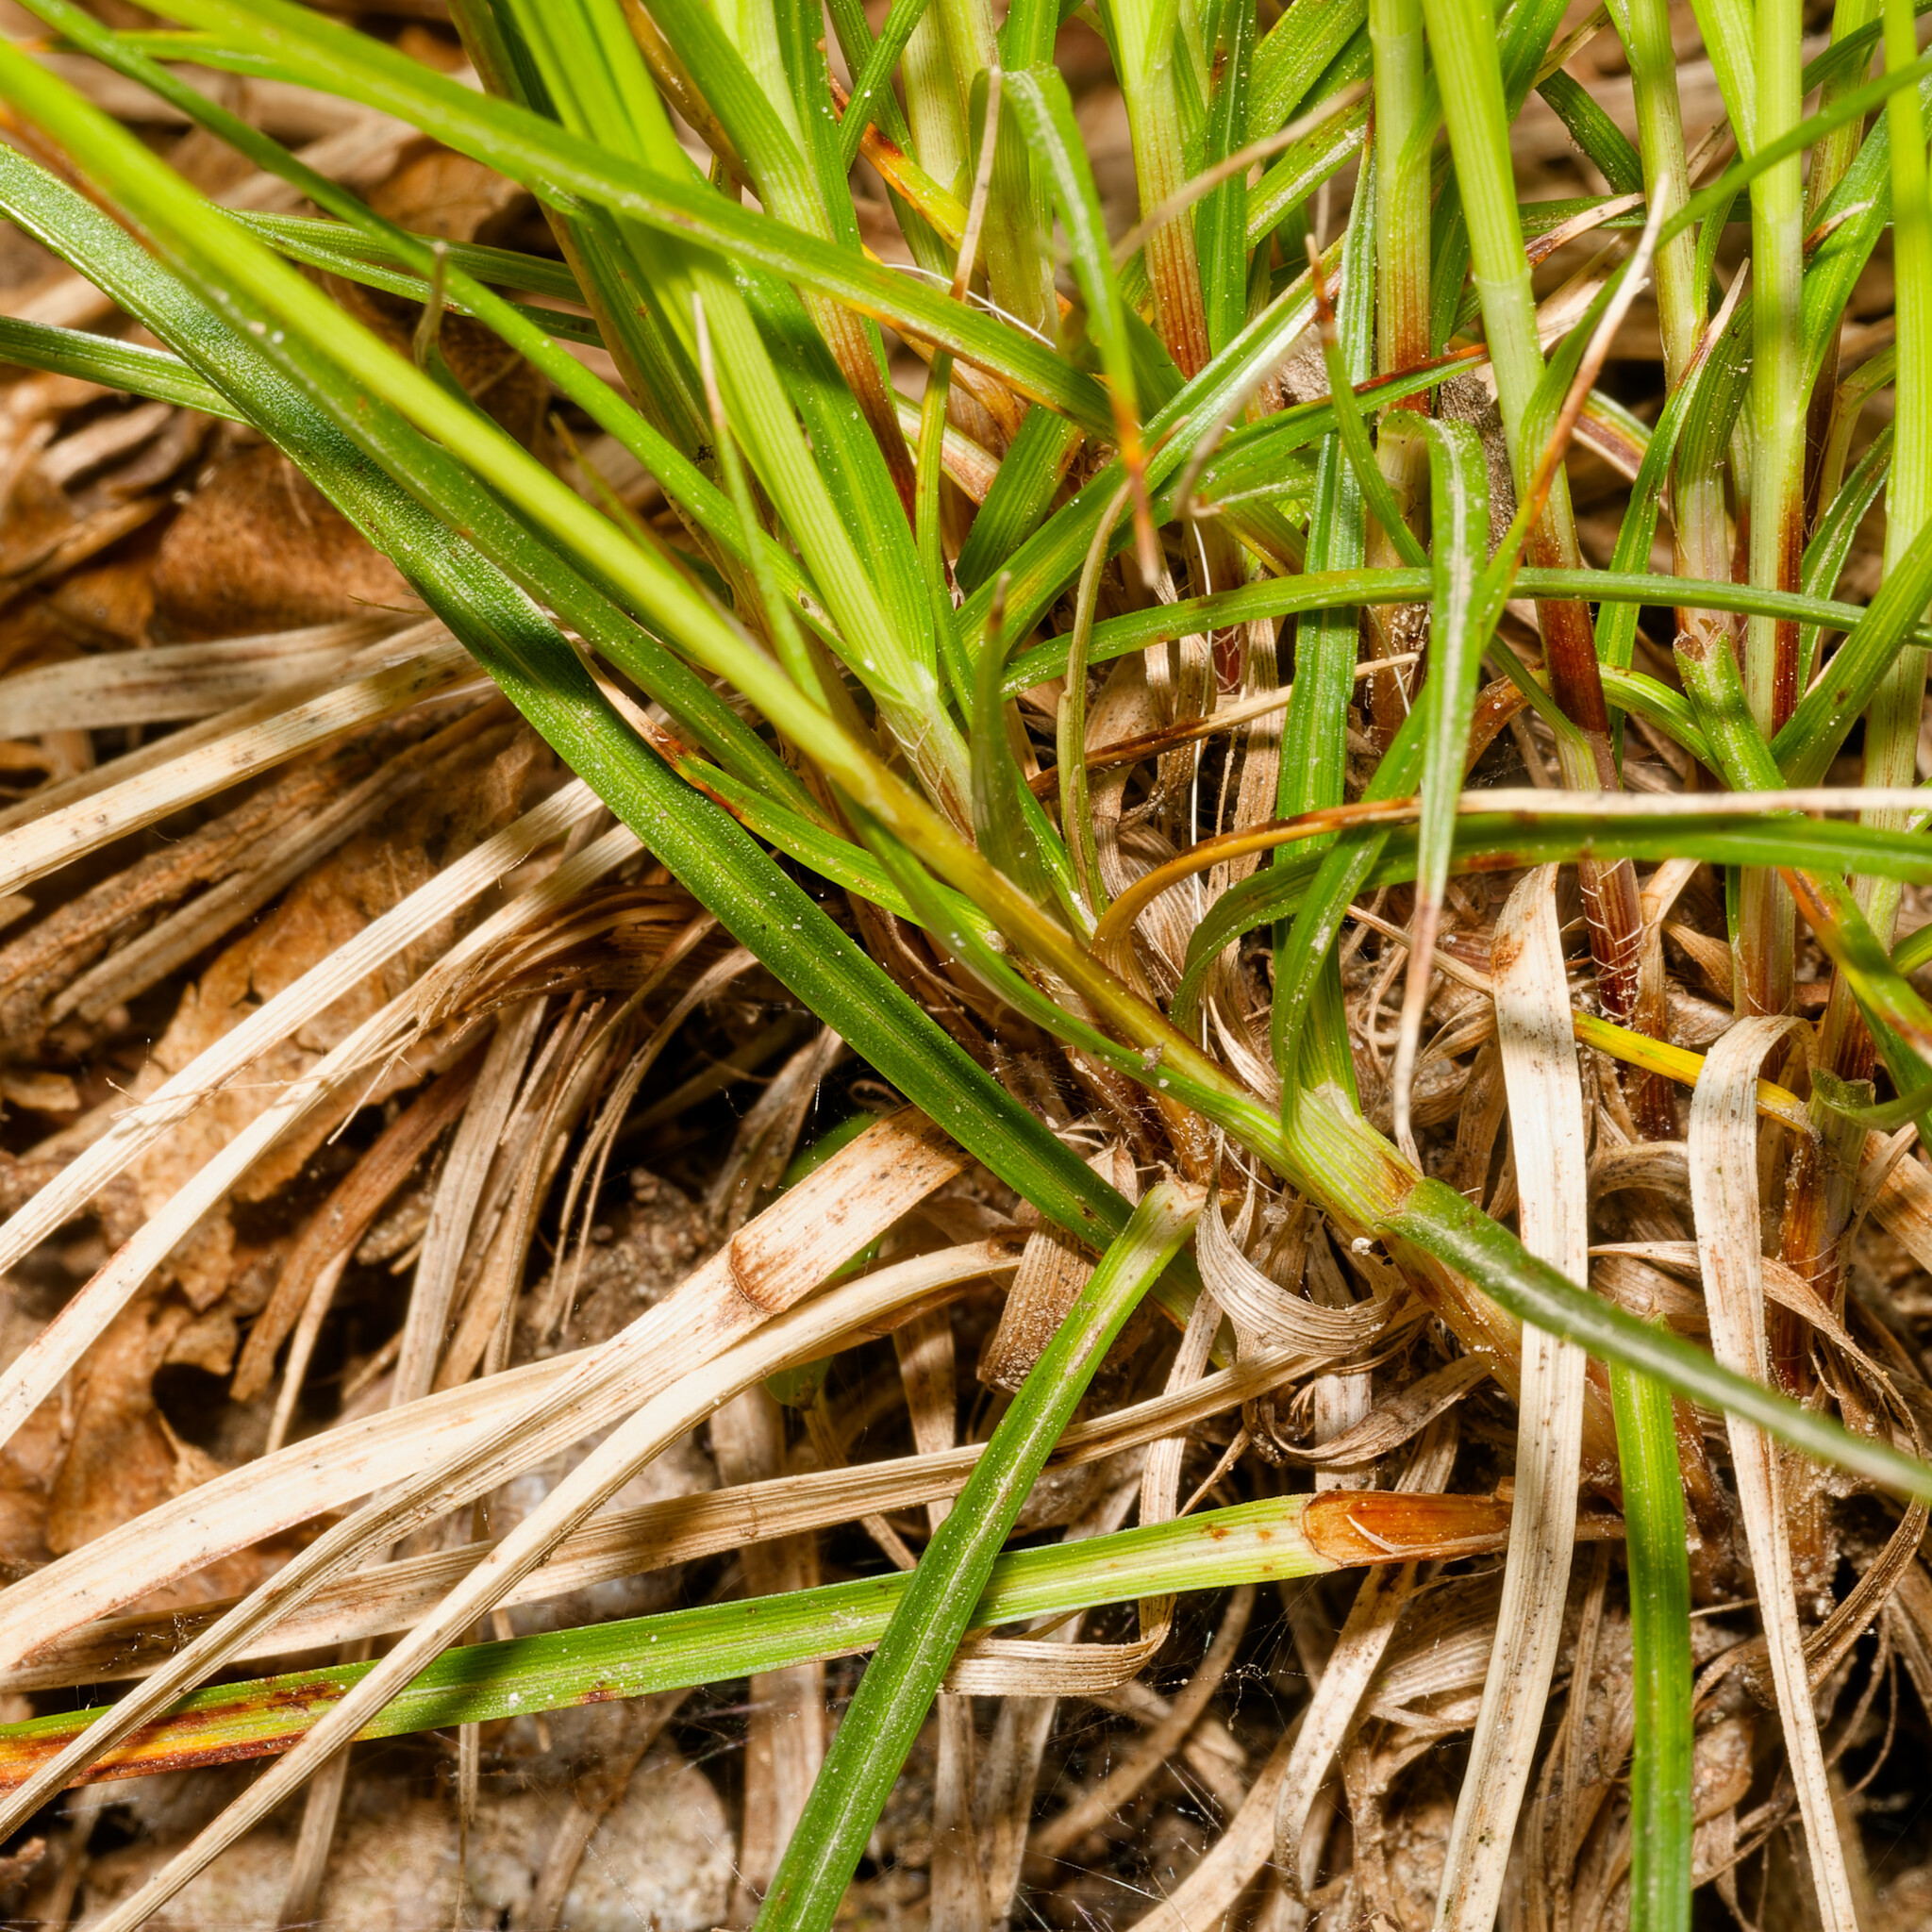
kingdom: Plantae
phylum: Tracheophyta
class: Liliopsida
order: Poales
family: Cyperaceae
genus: Carex
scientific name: Carex pensylvanica
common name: Common oak sedge
